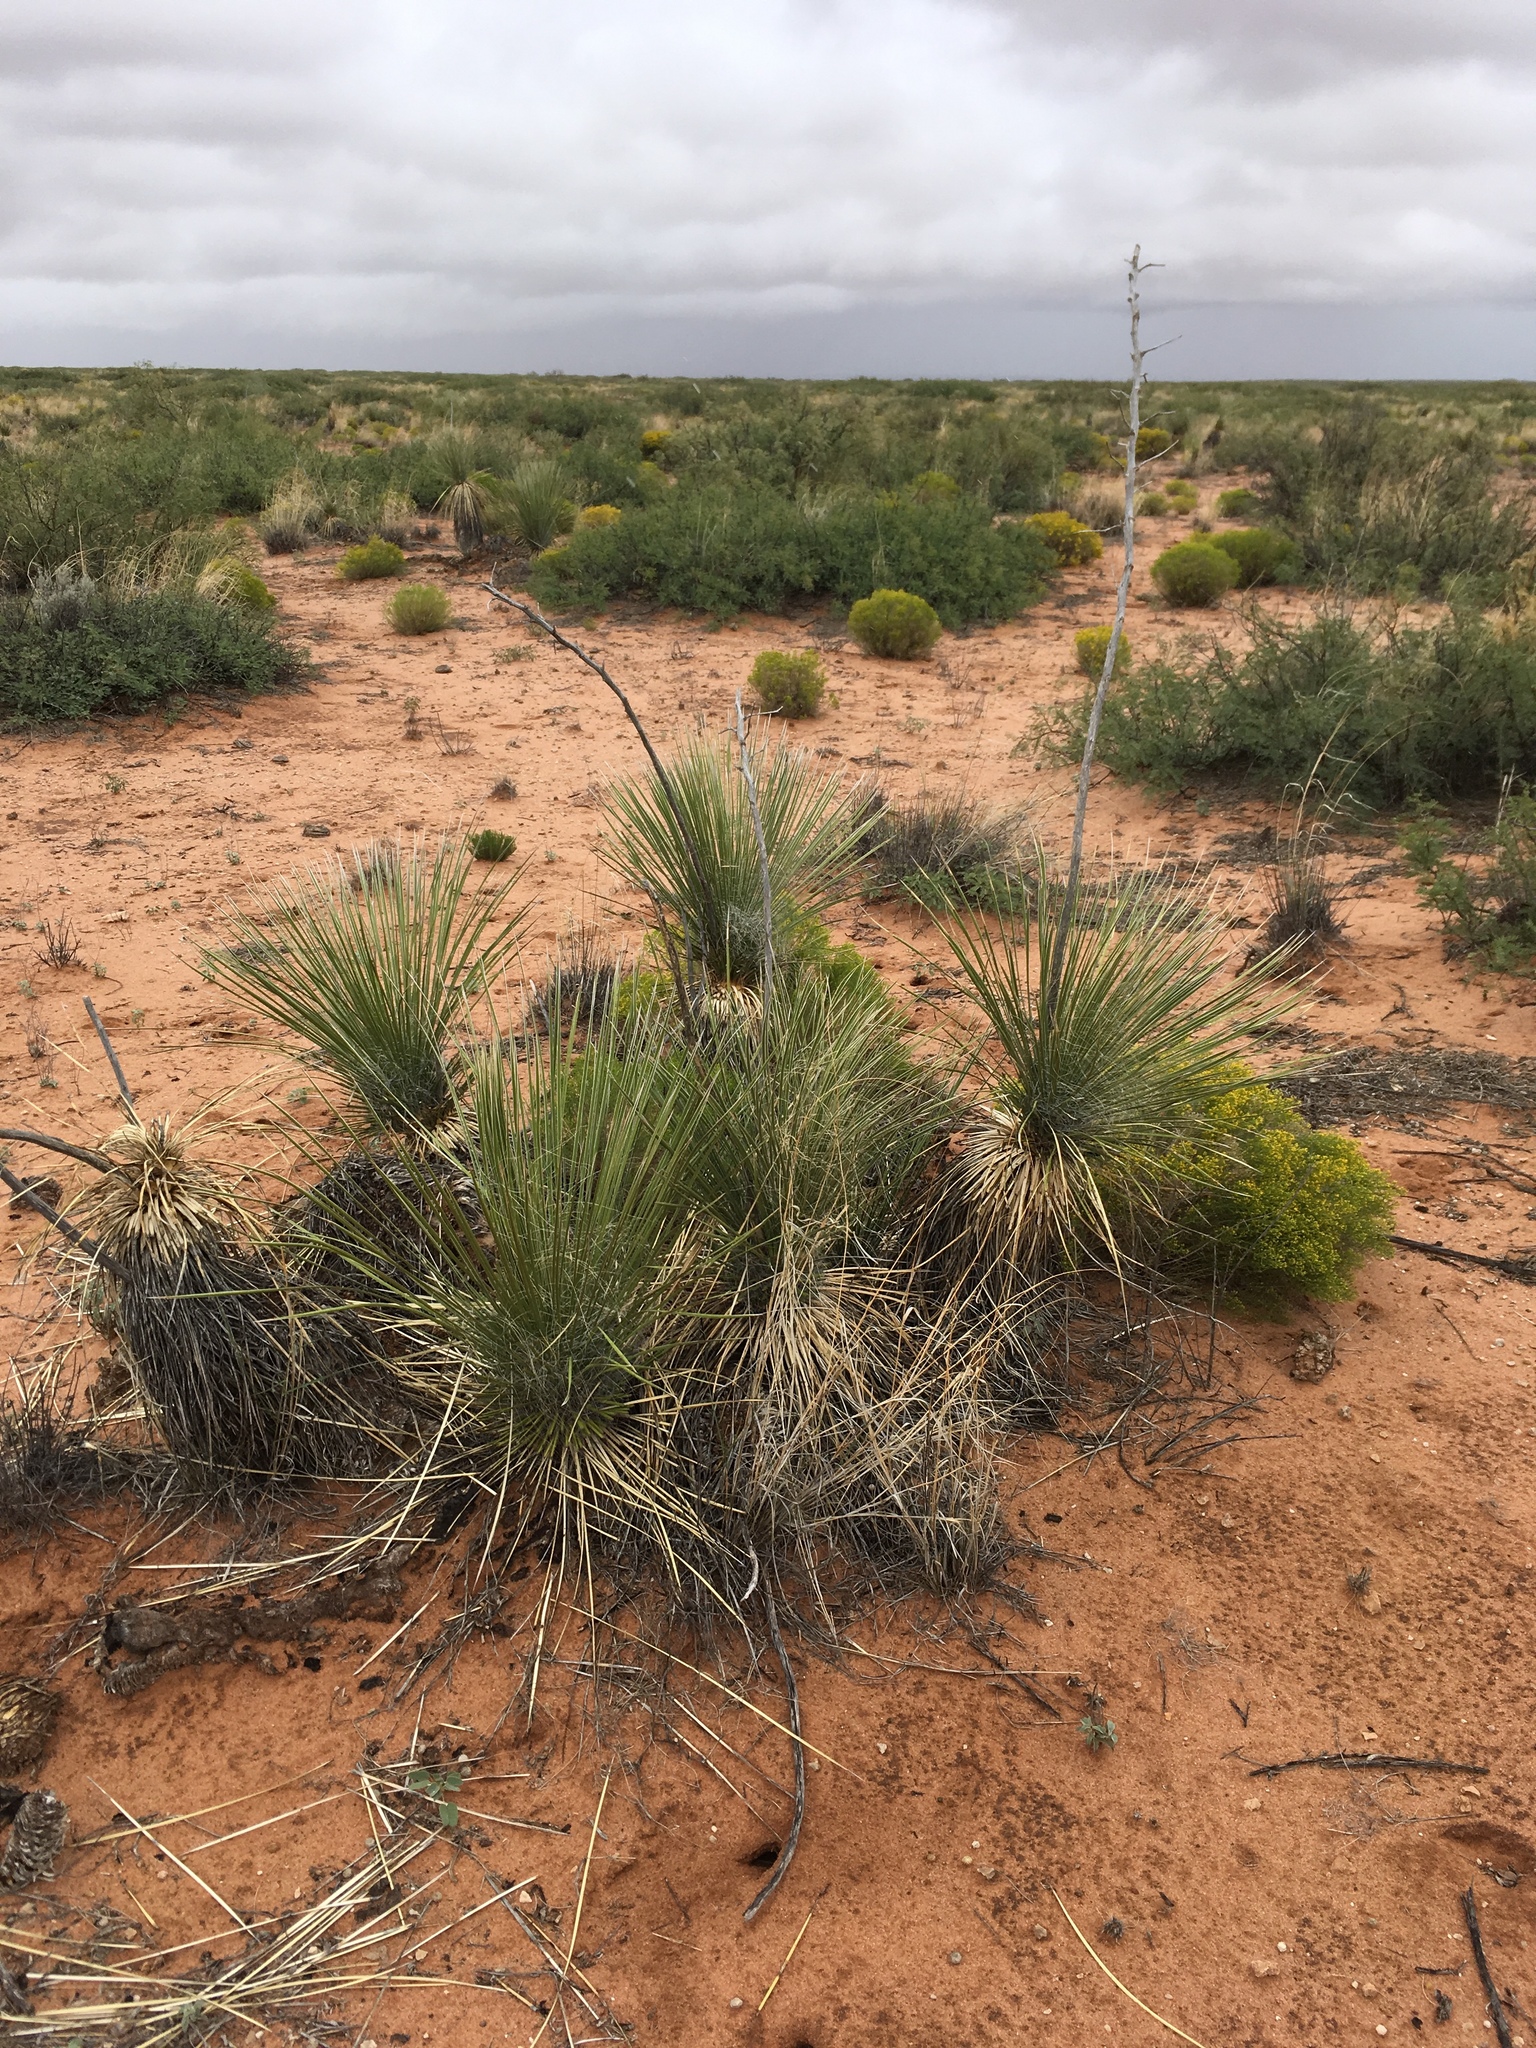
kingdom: Plantae
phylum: Tracheophyta
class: Liliopsida
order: Asparagales
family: Asparagaceae
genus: Yucca
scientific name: Yucca elata
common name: Palmella
